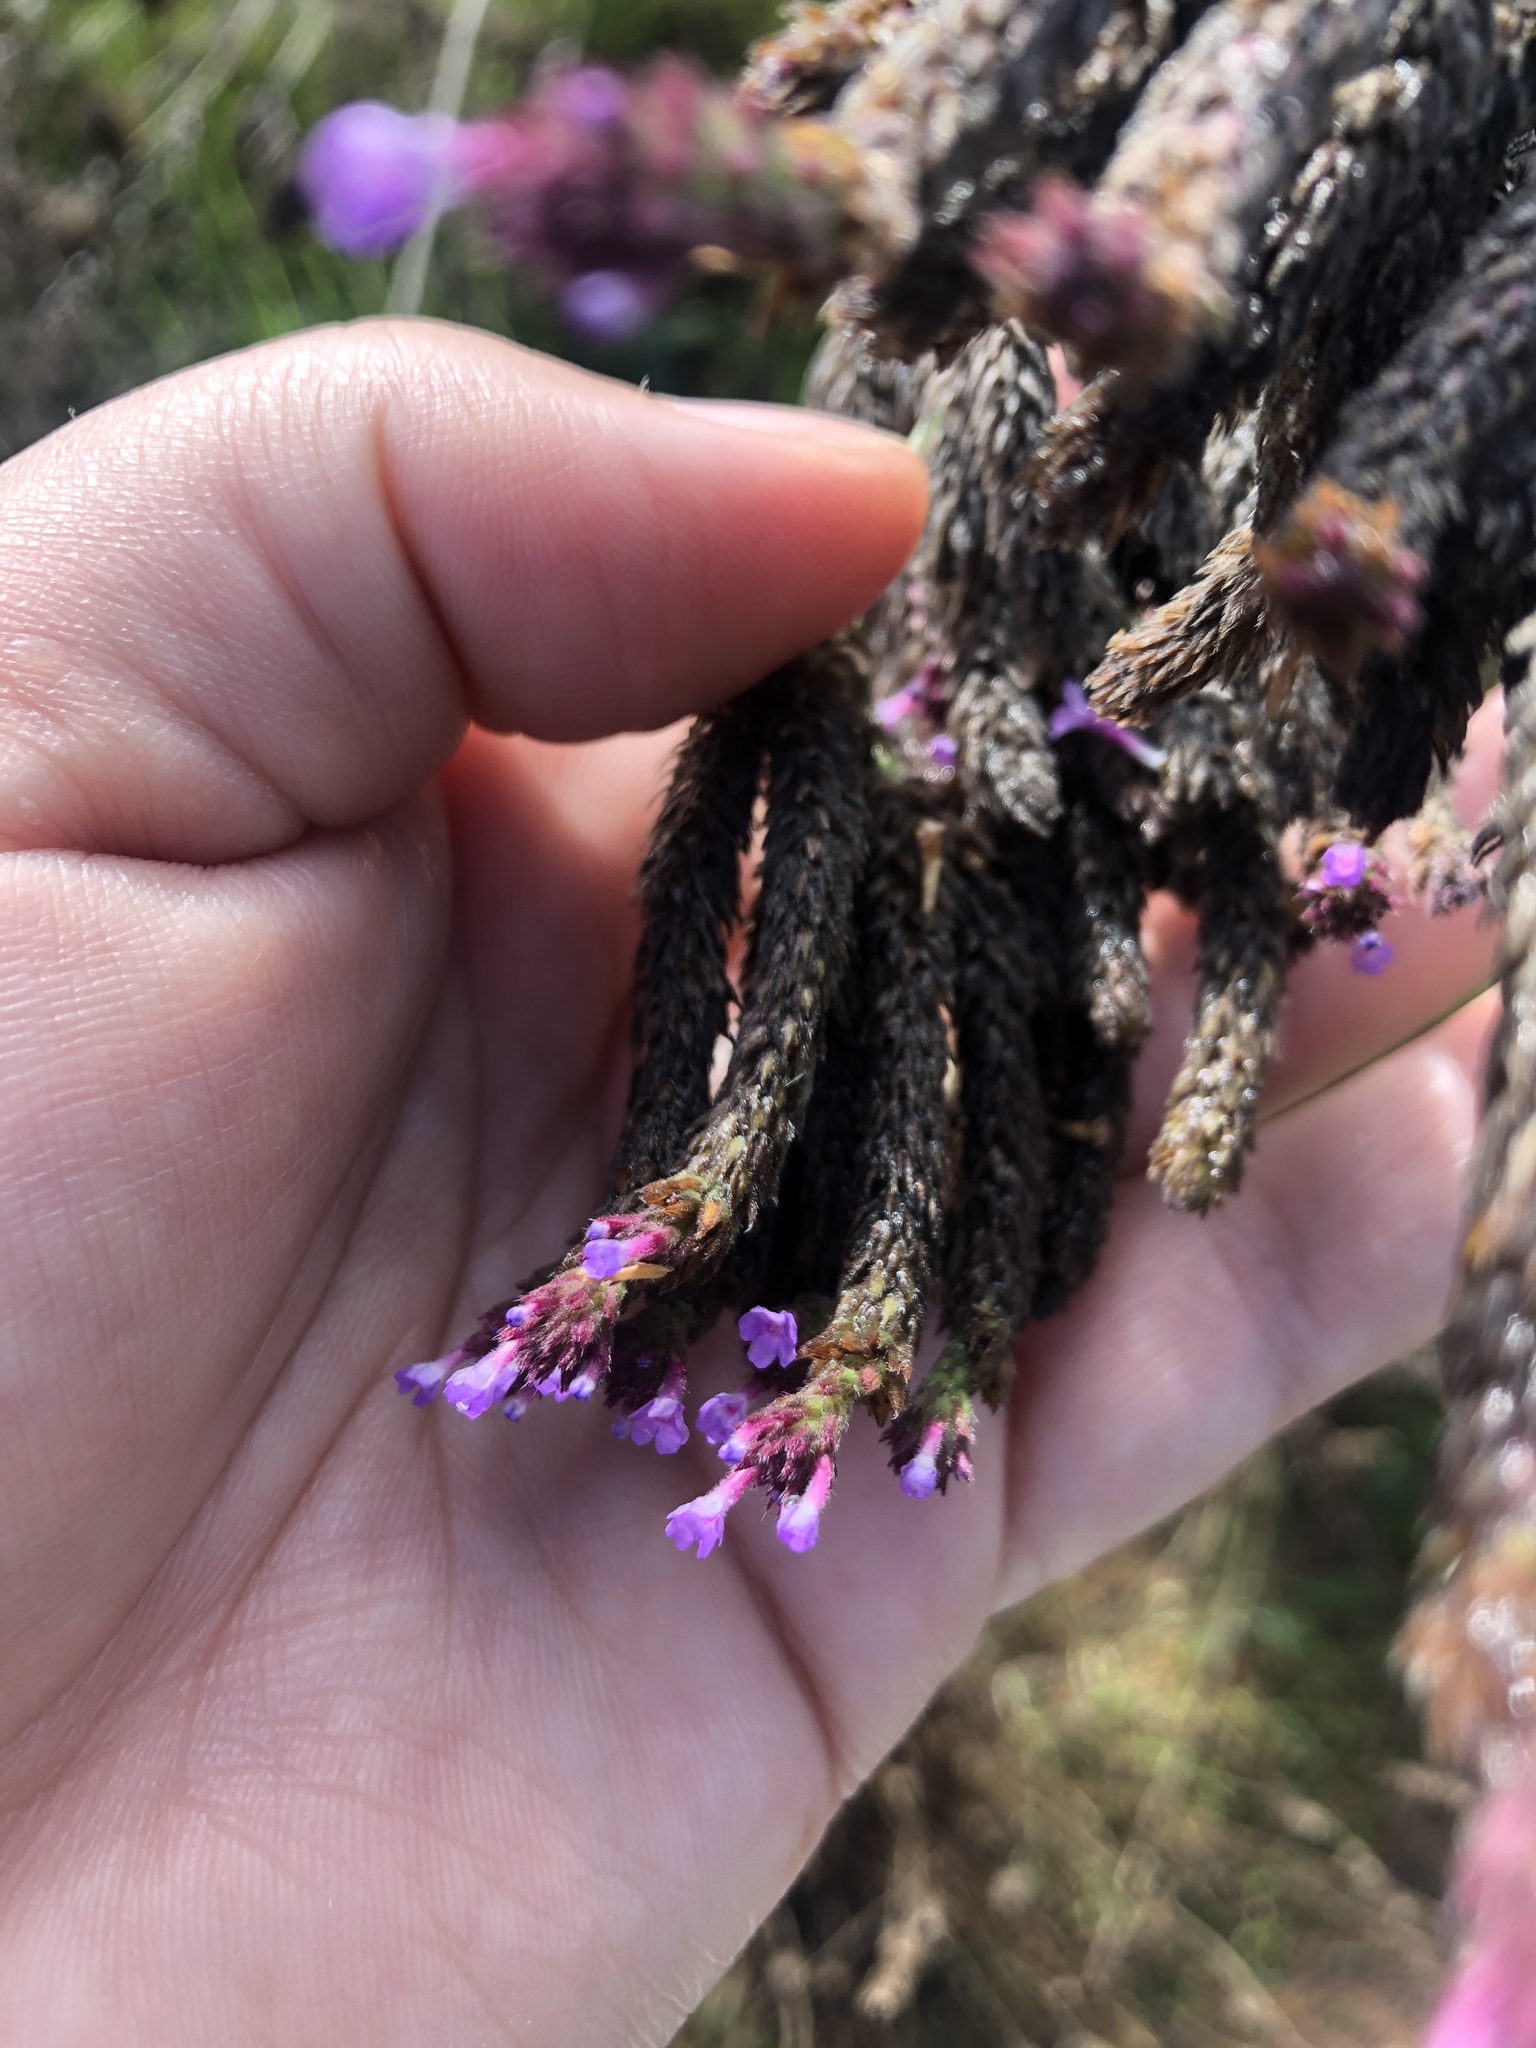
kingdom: Plantae
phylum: Tracheophyta
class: Magnoliopsida
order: Lamiales
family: Verbenaceae
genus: Verbena
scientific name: Verbena bonariensis
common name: Purpletop vervain
